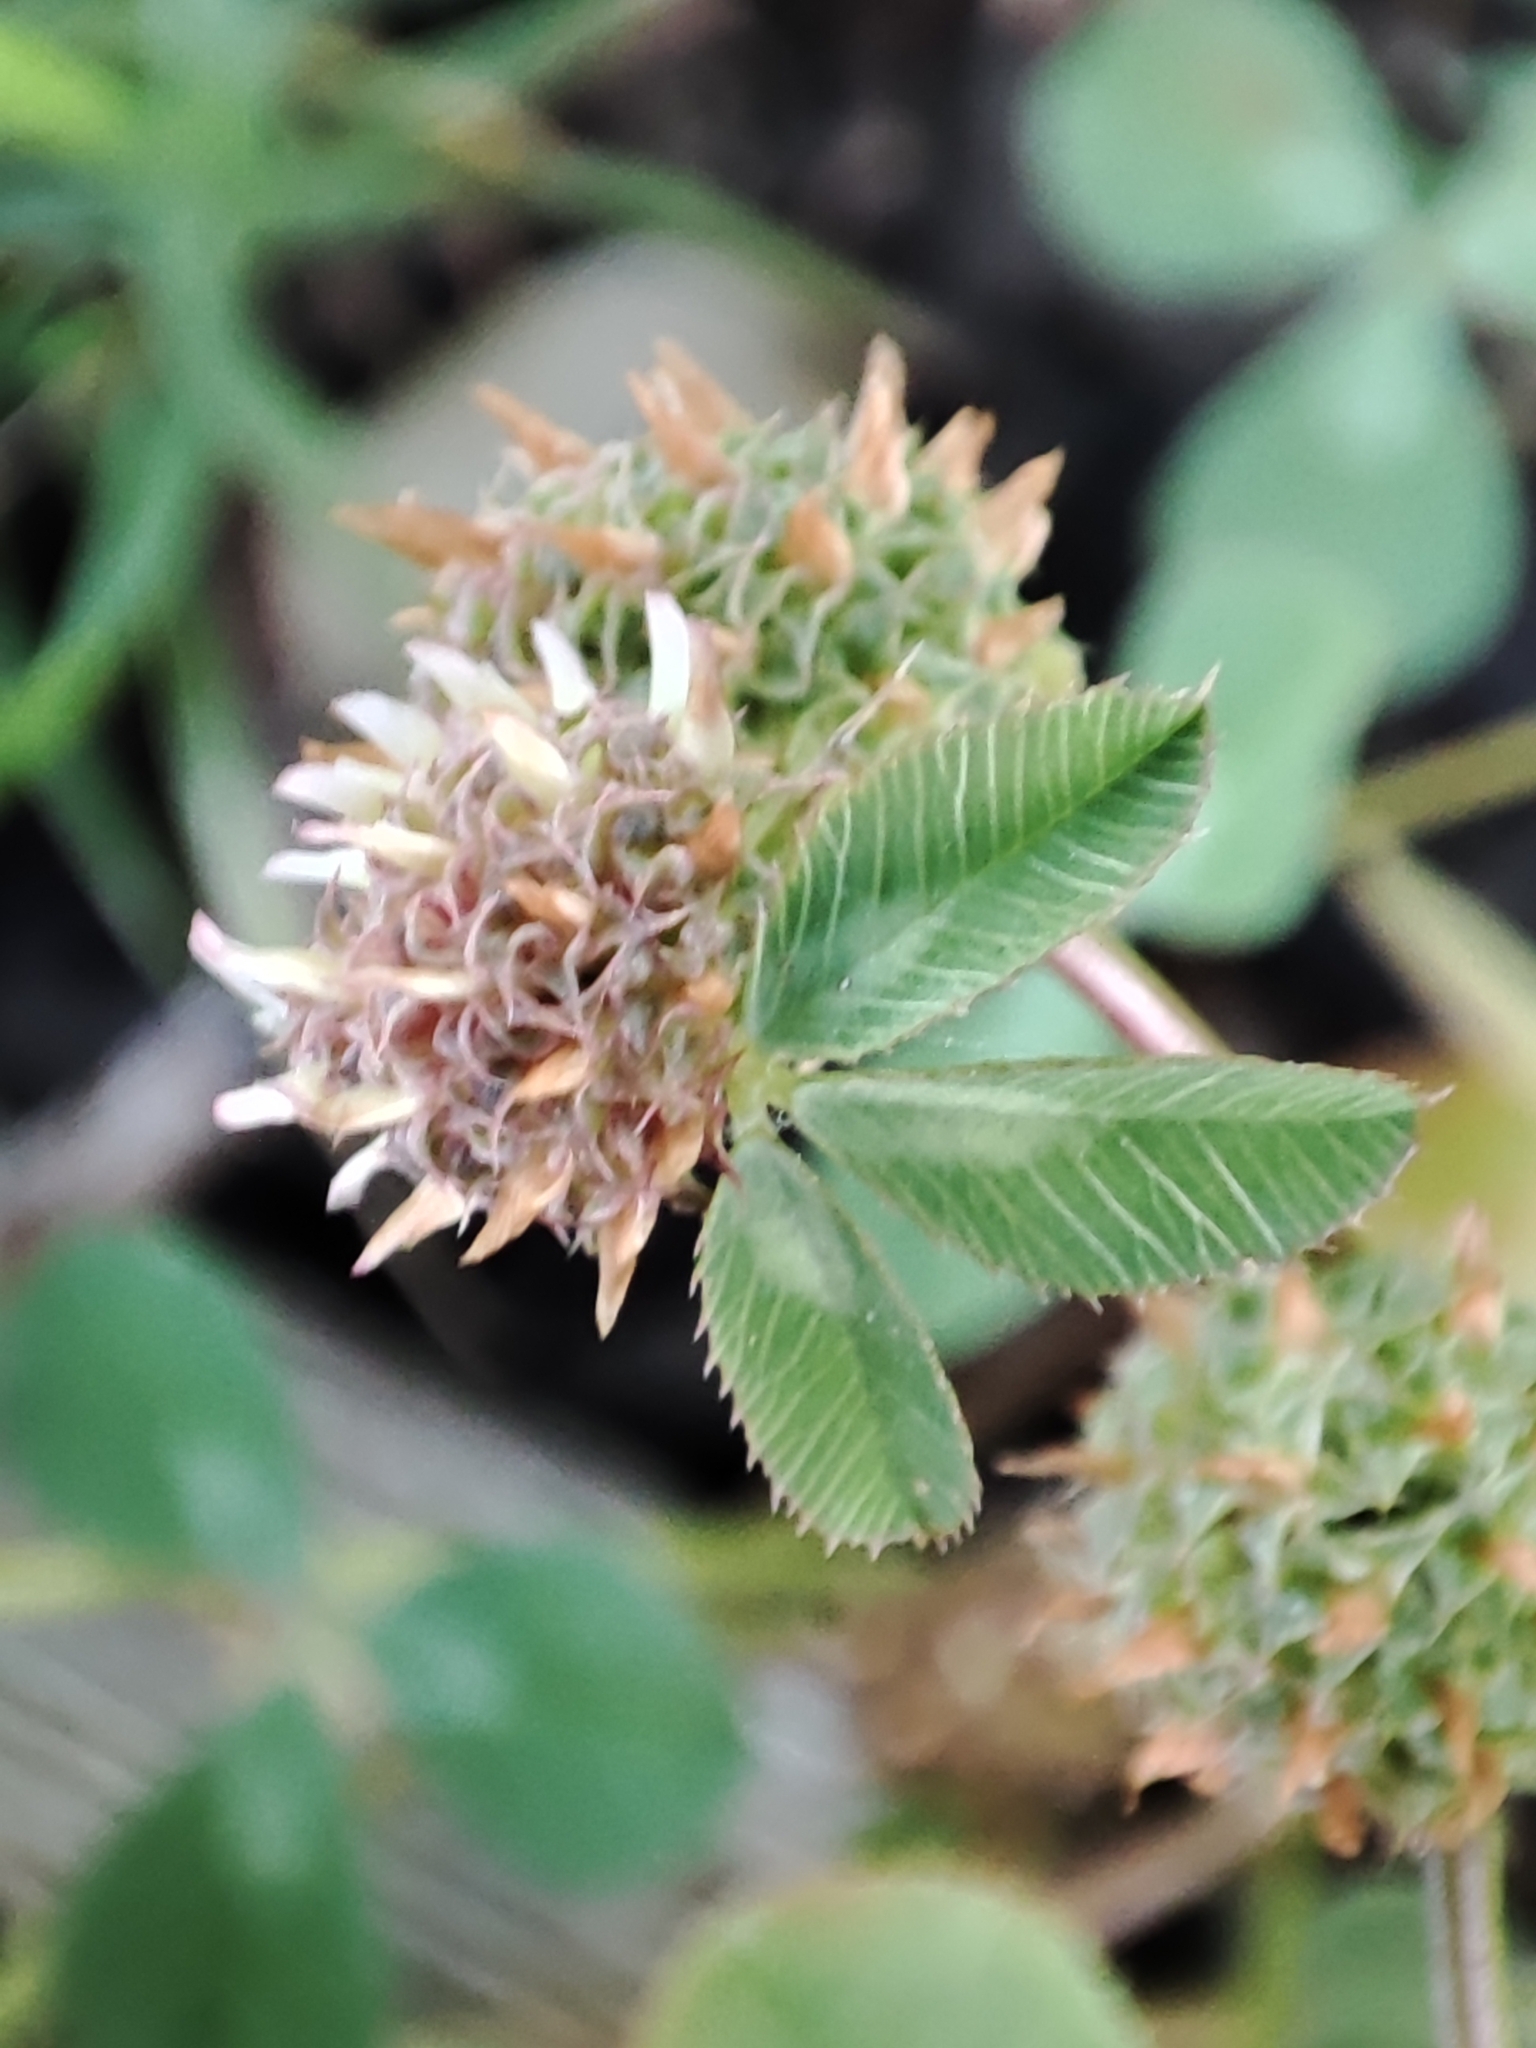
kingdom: Plantae
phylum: Tracheophyta
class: Magnoliopsida
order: Fabales
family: Fabaceae
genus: Trifolium
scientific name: Trifolium glomeratum
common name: Clustered clover
